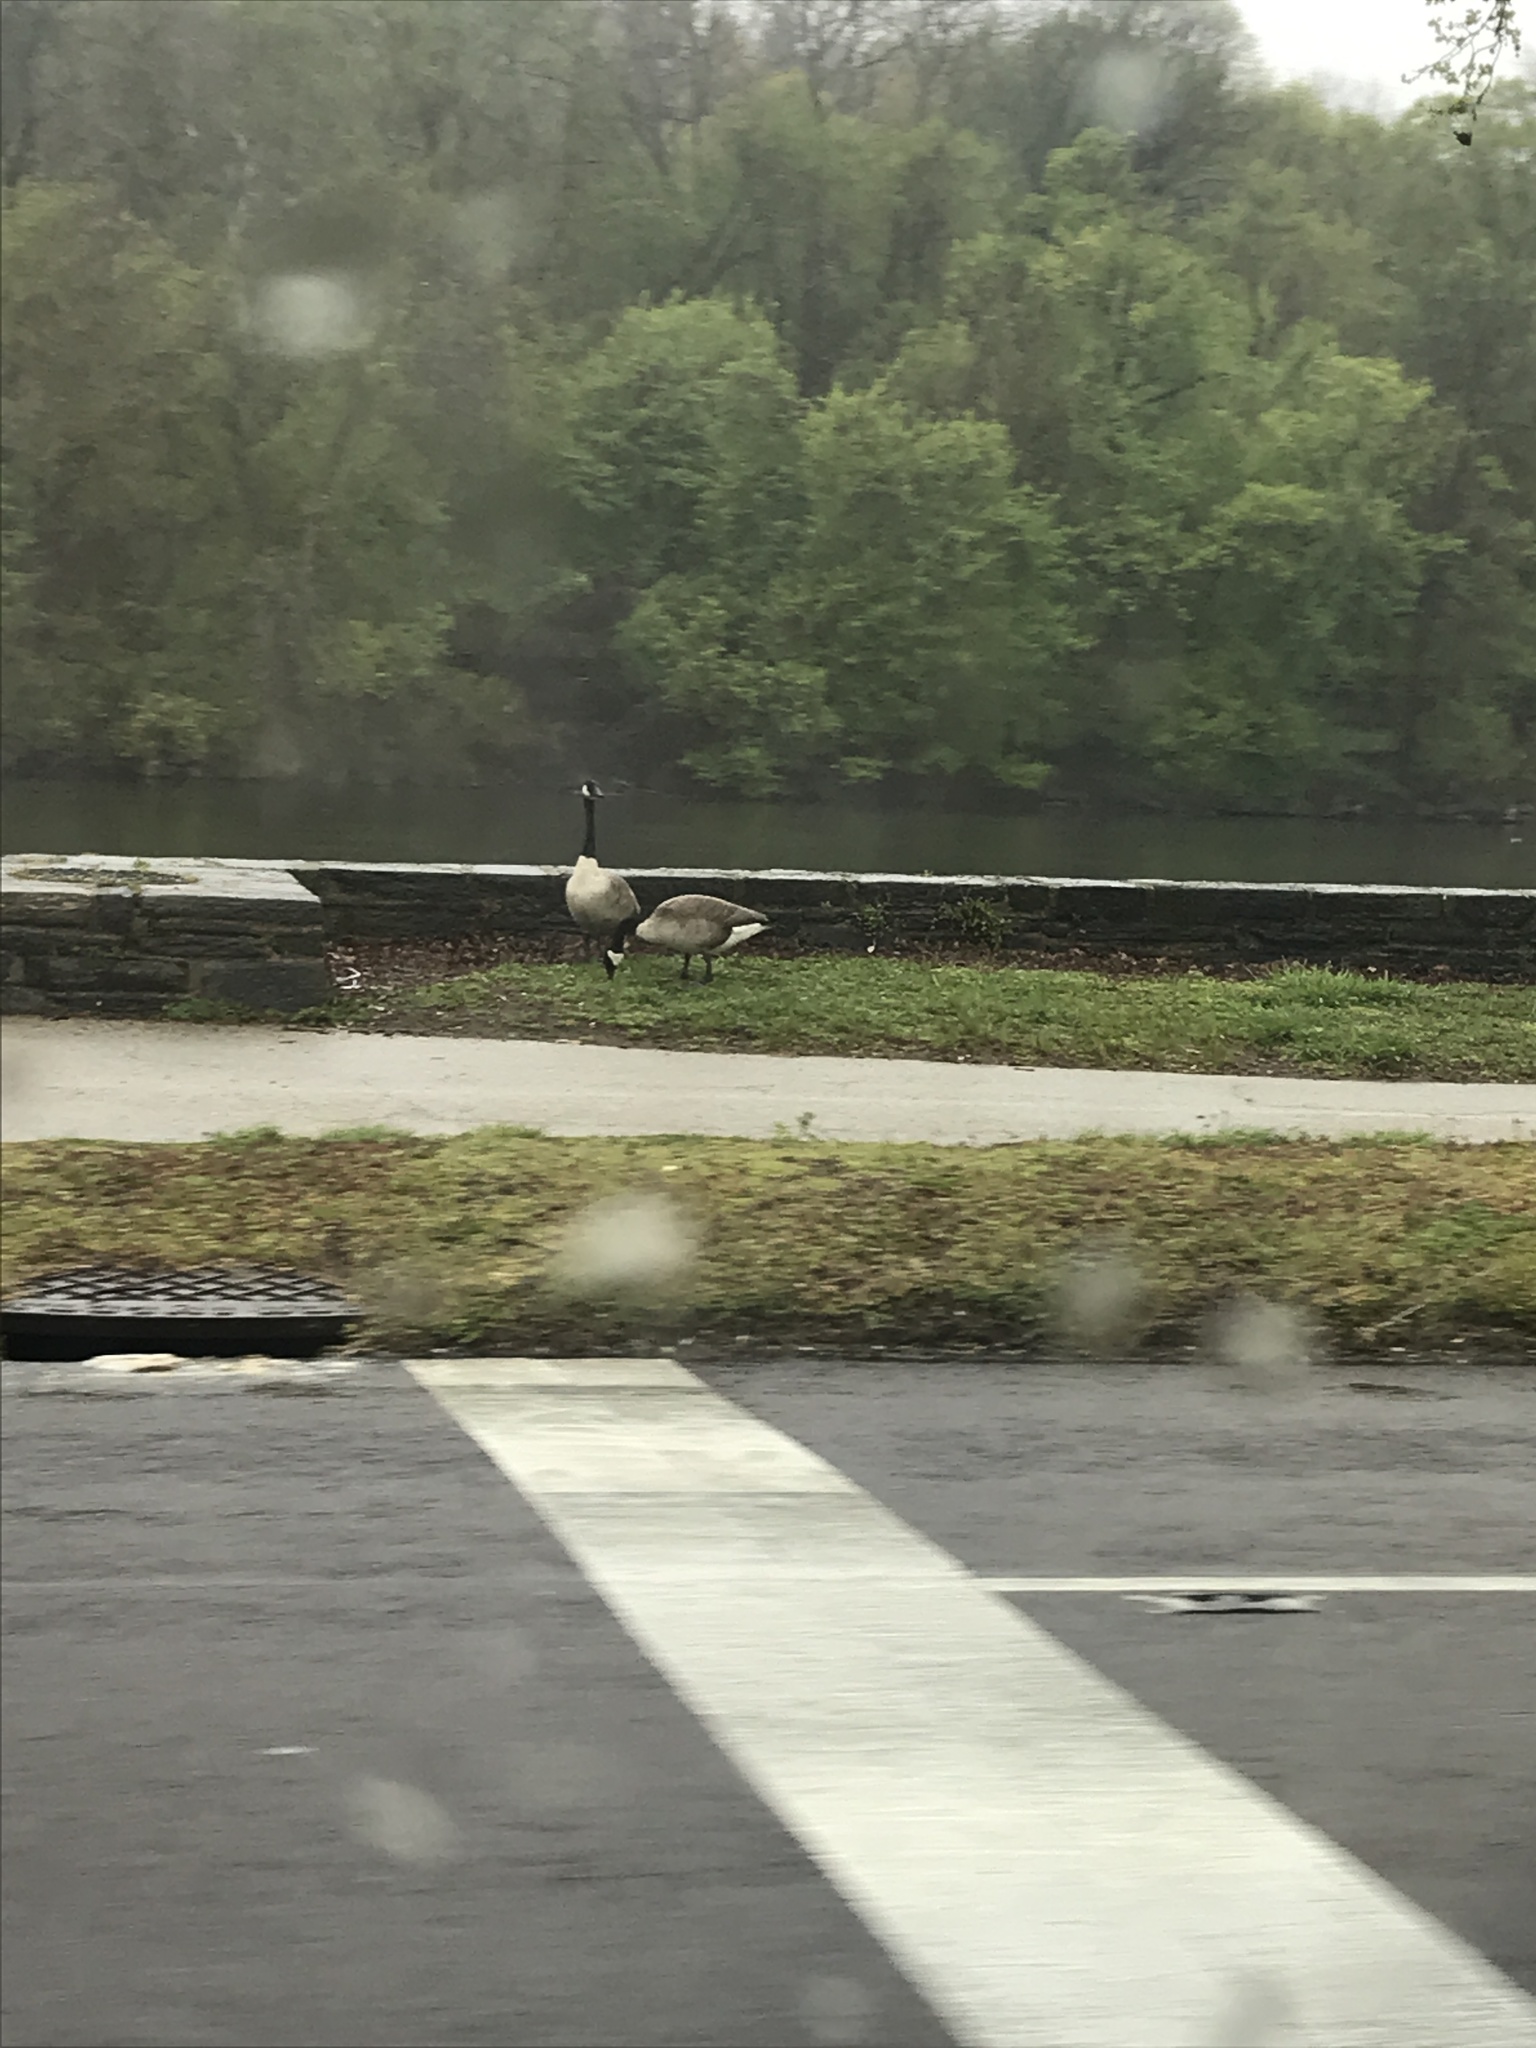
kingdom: Animalia
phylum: Chordata
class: Aves
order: Anseriformes
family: Anatidae
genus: Branta
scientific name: Branta canadensis
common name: Canada goose
